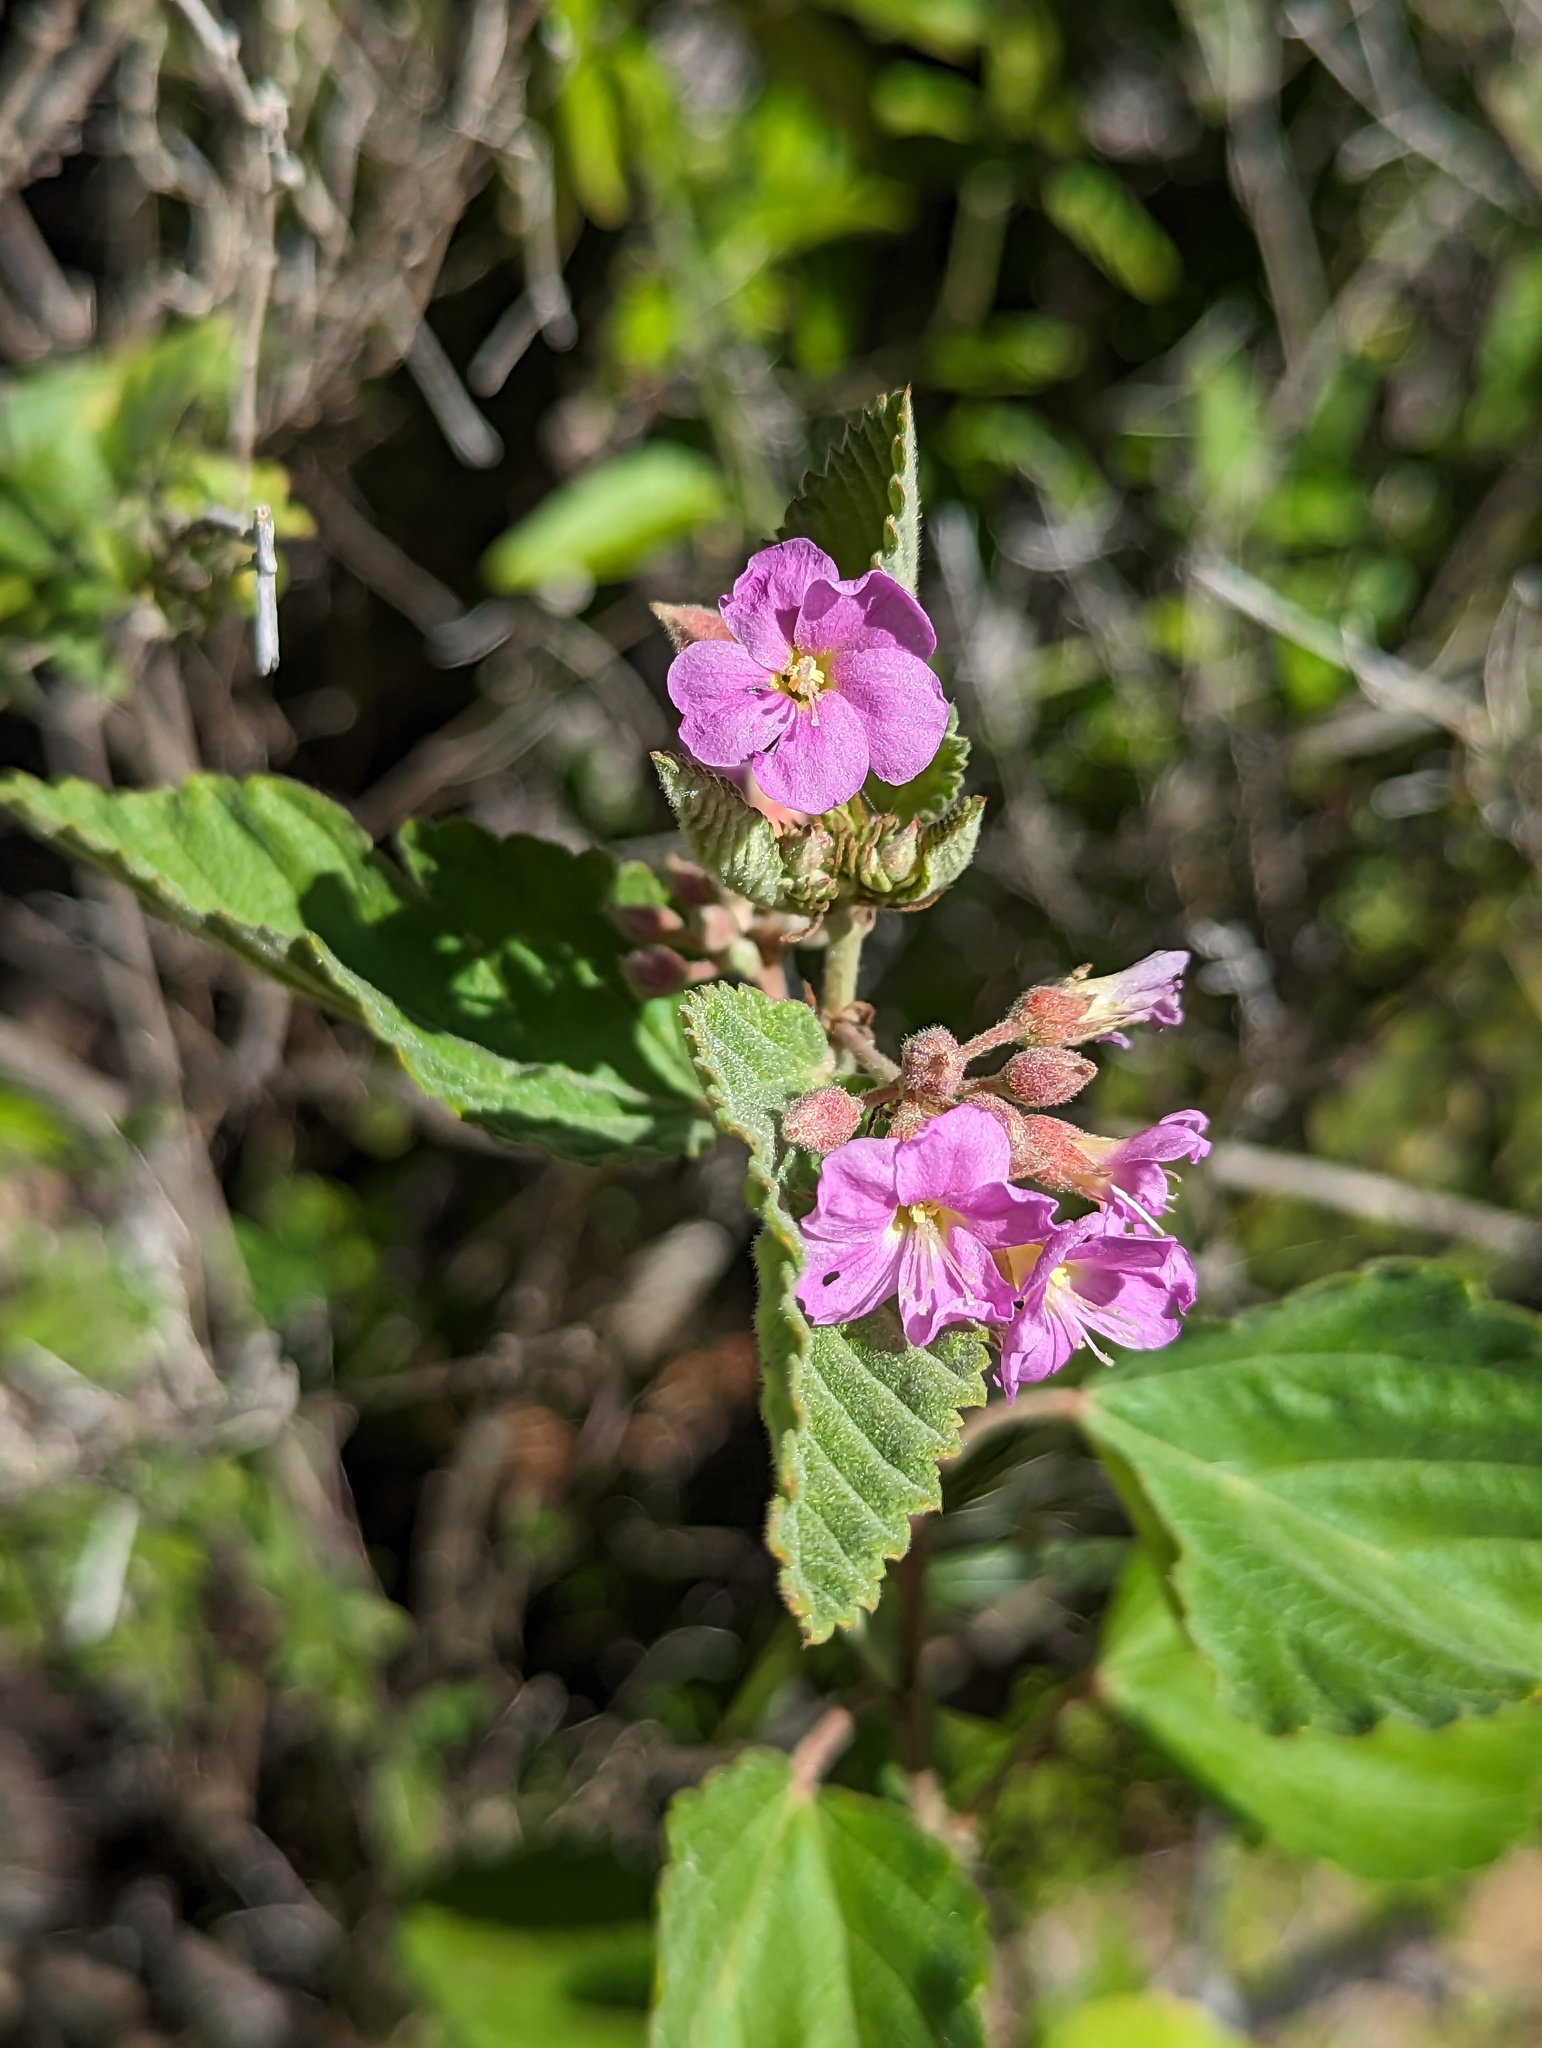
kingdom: Plantae
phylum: Tracheophyta
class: Magnoliopsida
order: Malvales
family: Malvaceae
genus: Melochia
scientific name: Melochia tomentosa
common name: Black torch
